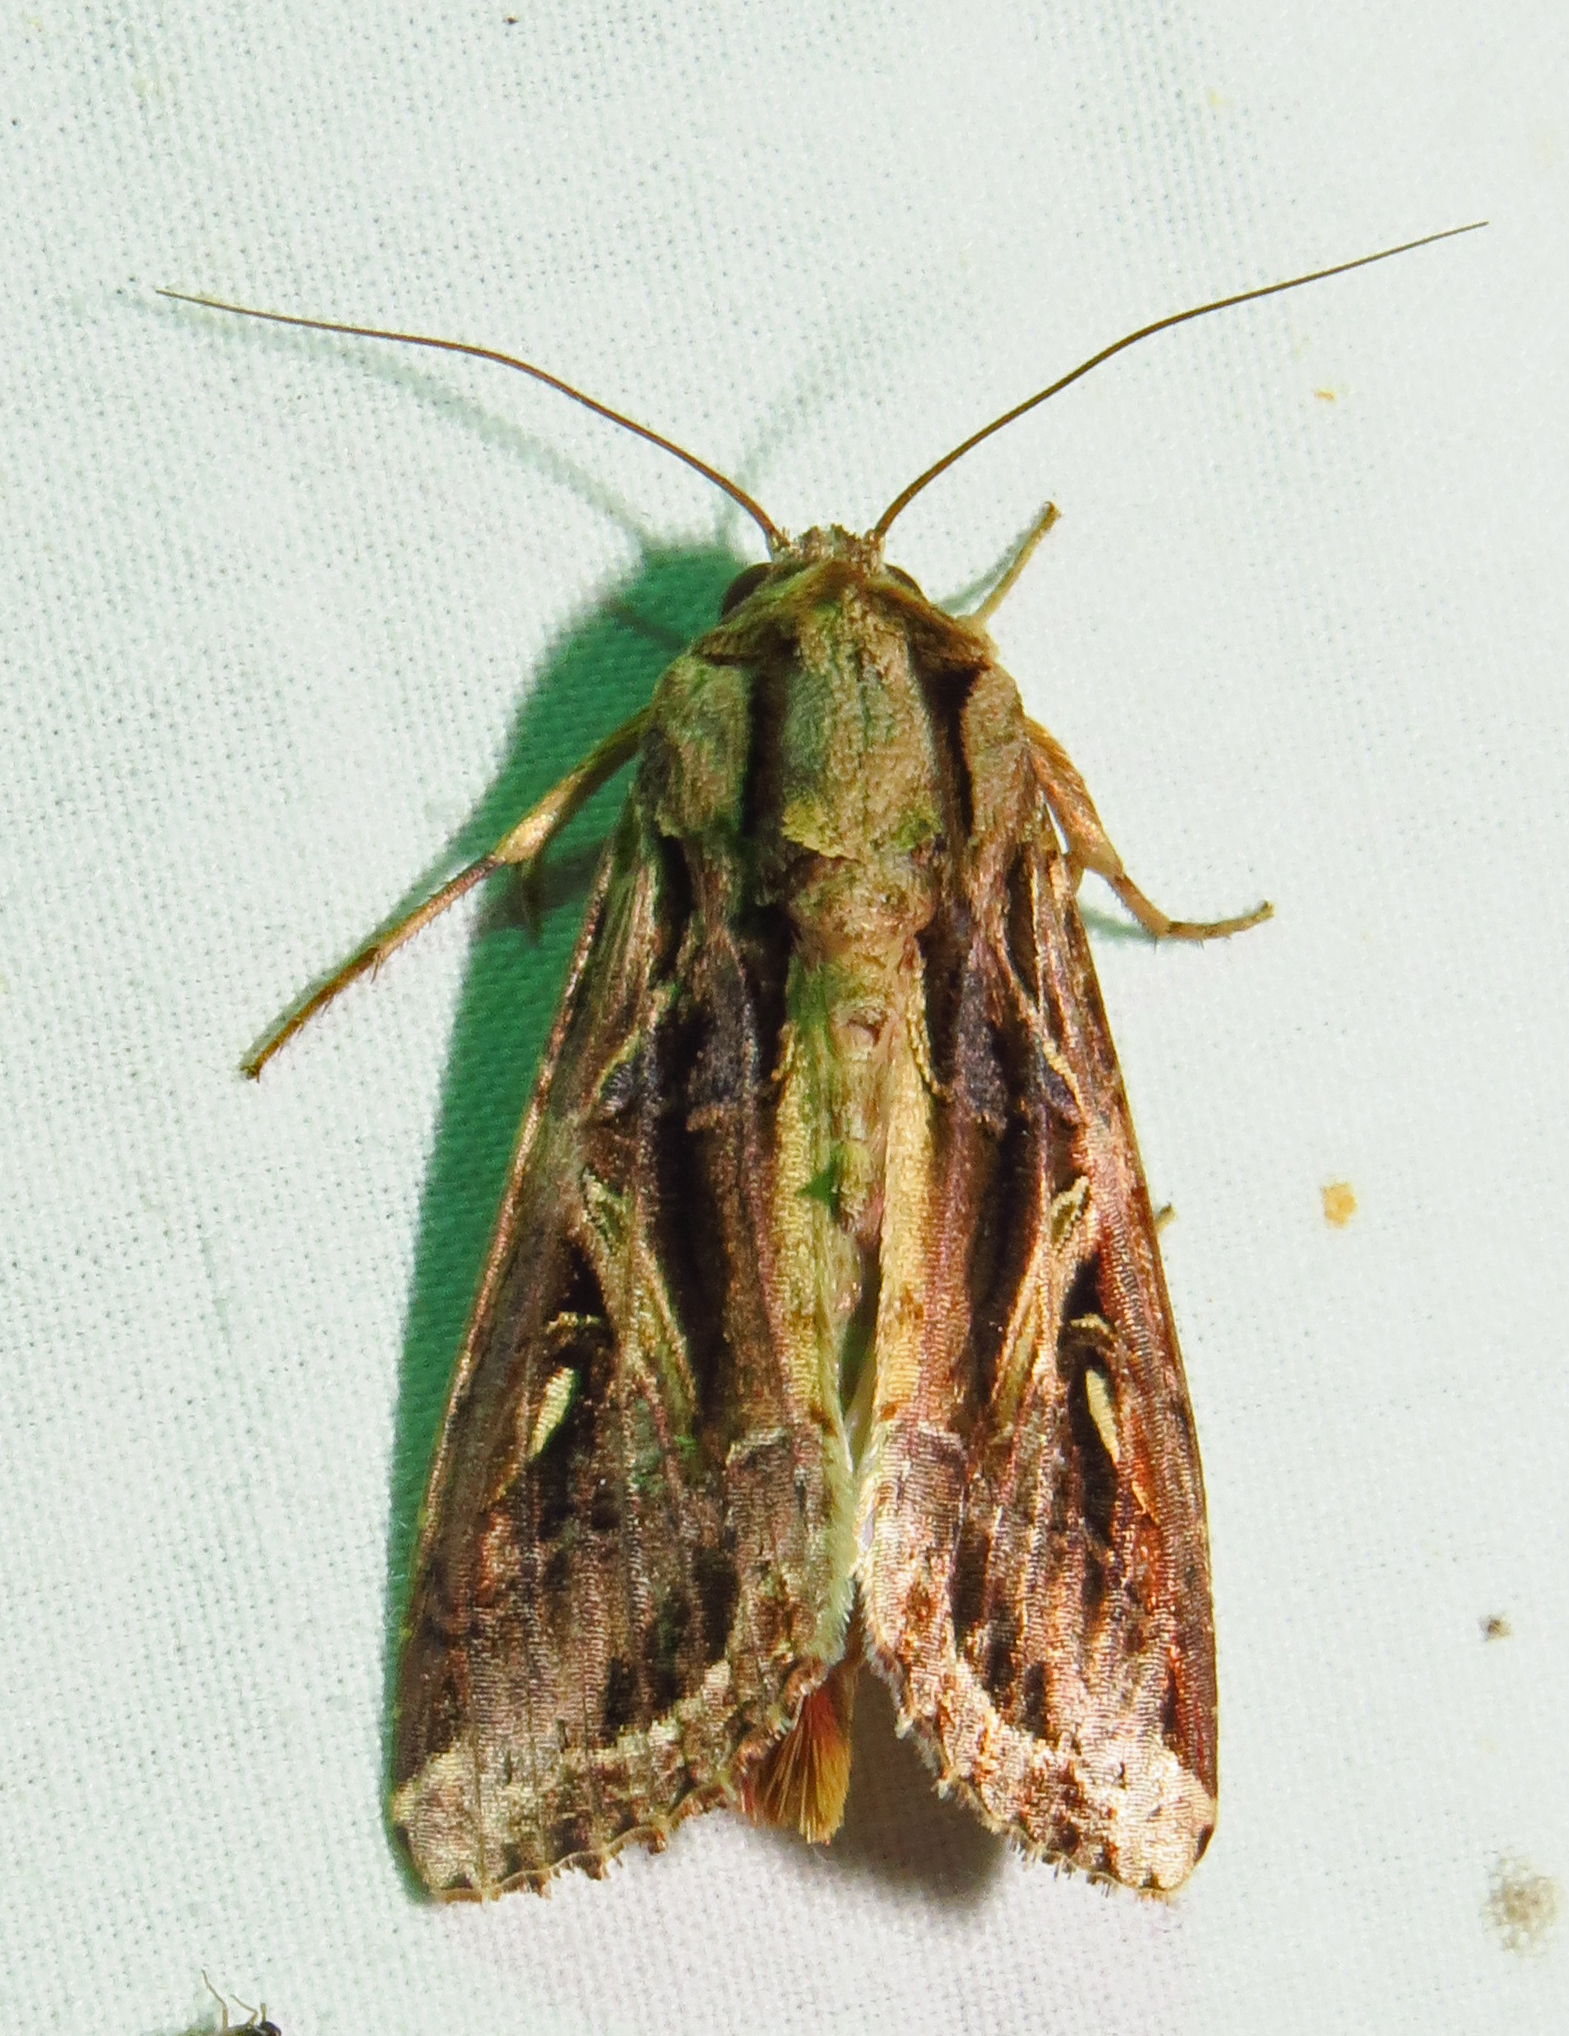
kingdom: Animalia
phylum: Arthropoda
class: Insecta
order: Lepidoptera
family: Noctuidae
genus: Spodoptera
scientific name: Spodoptera dolichos
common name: Sweetpotato armyworm
